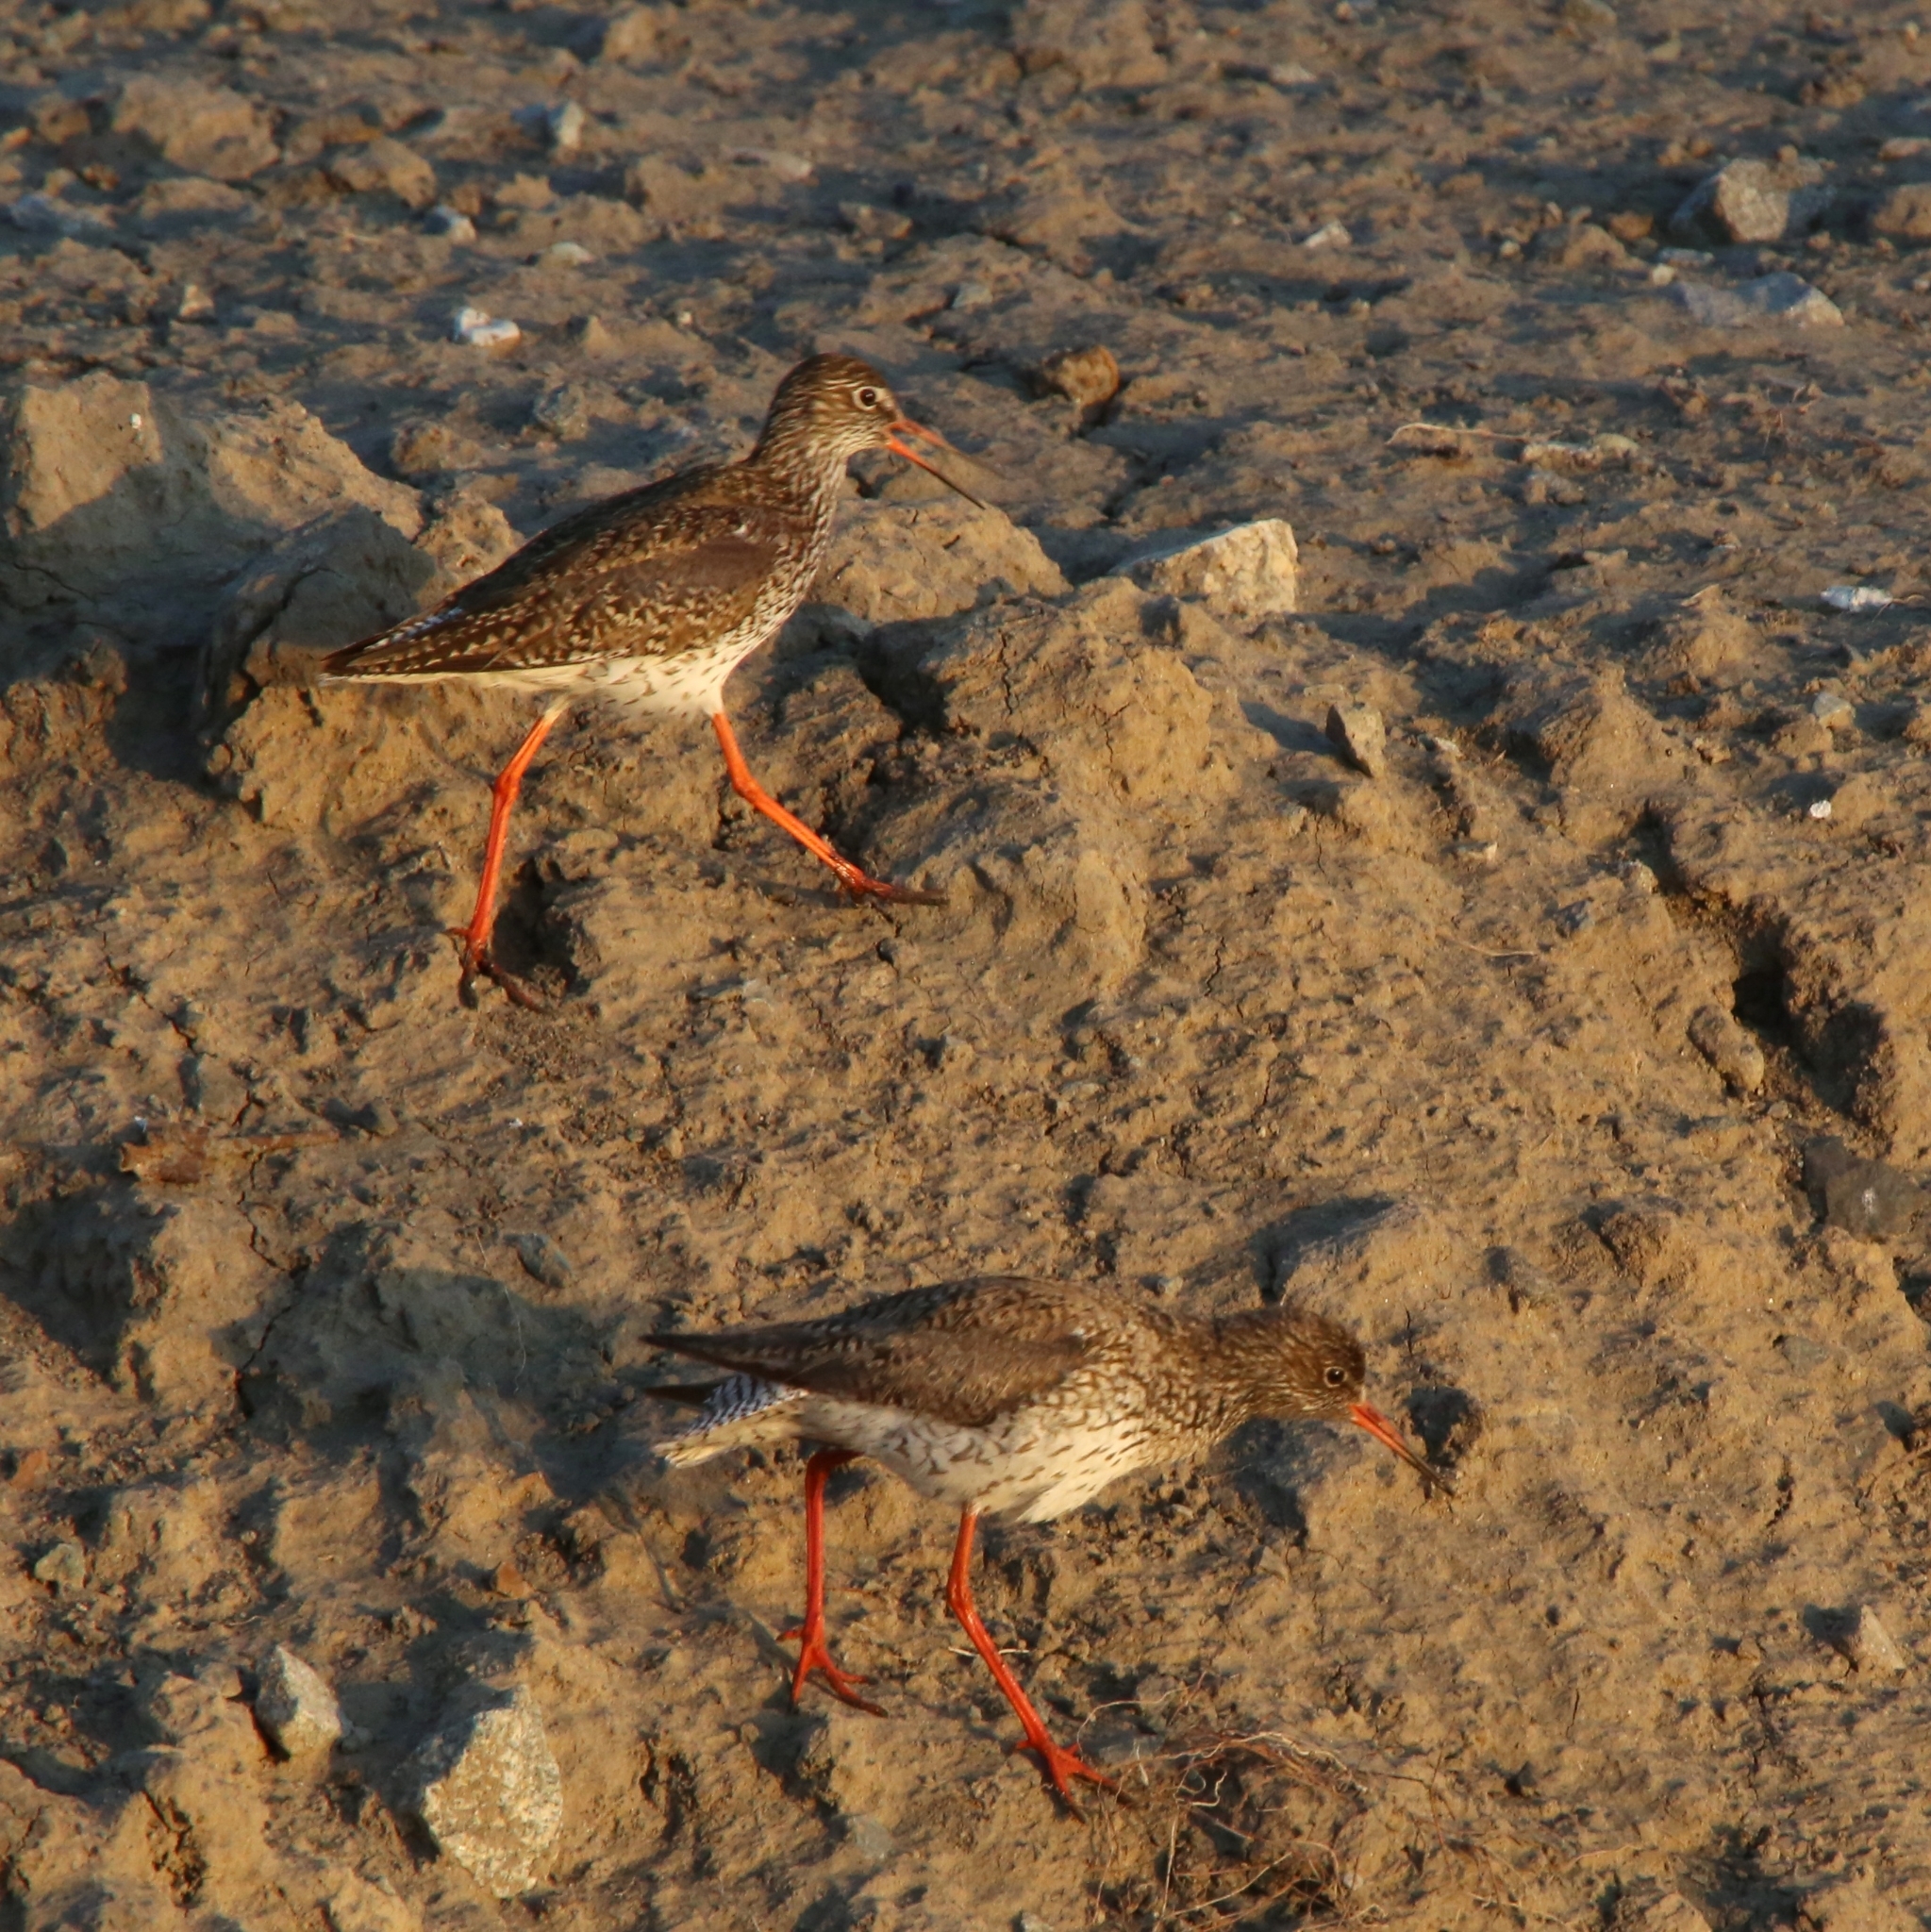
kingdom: Animalia
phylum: Chordata
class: Aves
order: Charadriiformes
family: Scolopacidae
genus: Tringa
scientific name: Tringa totanus
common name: Common redshank
